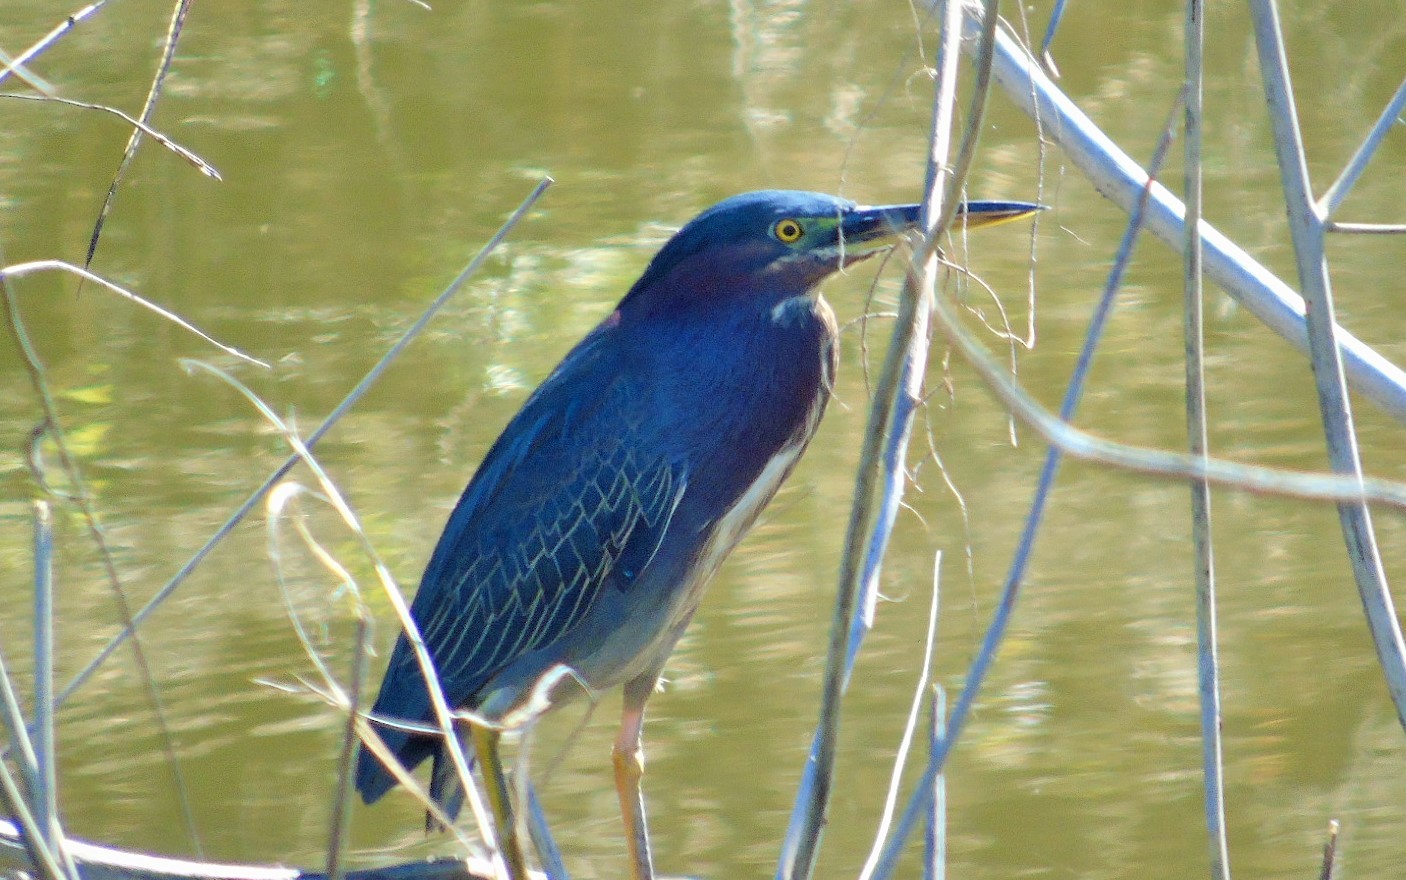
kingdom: Animalia
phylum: Chordata
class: Aves
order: Pelecaniformes
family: Ardeidae
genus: Butorides
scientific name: Butorides virescens
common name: Green heron
